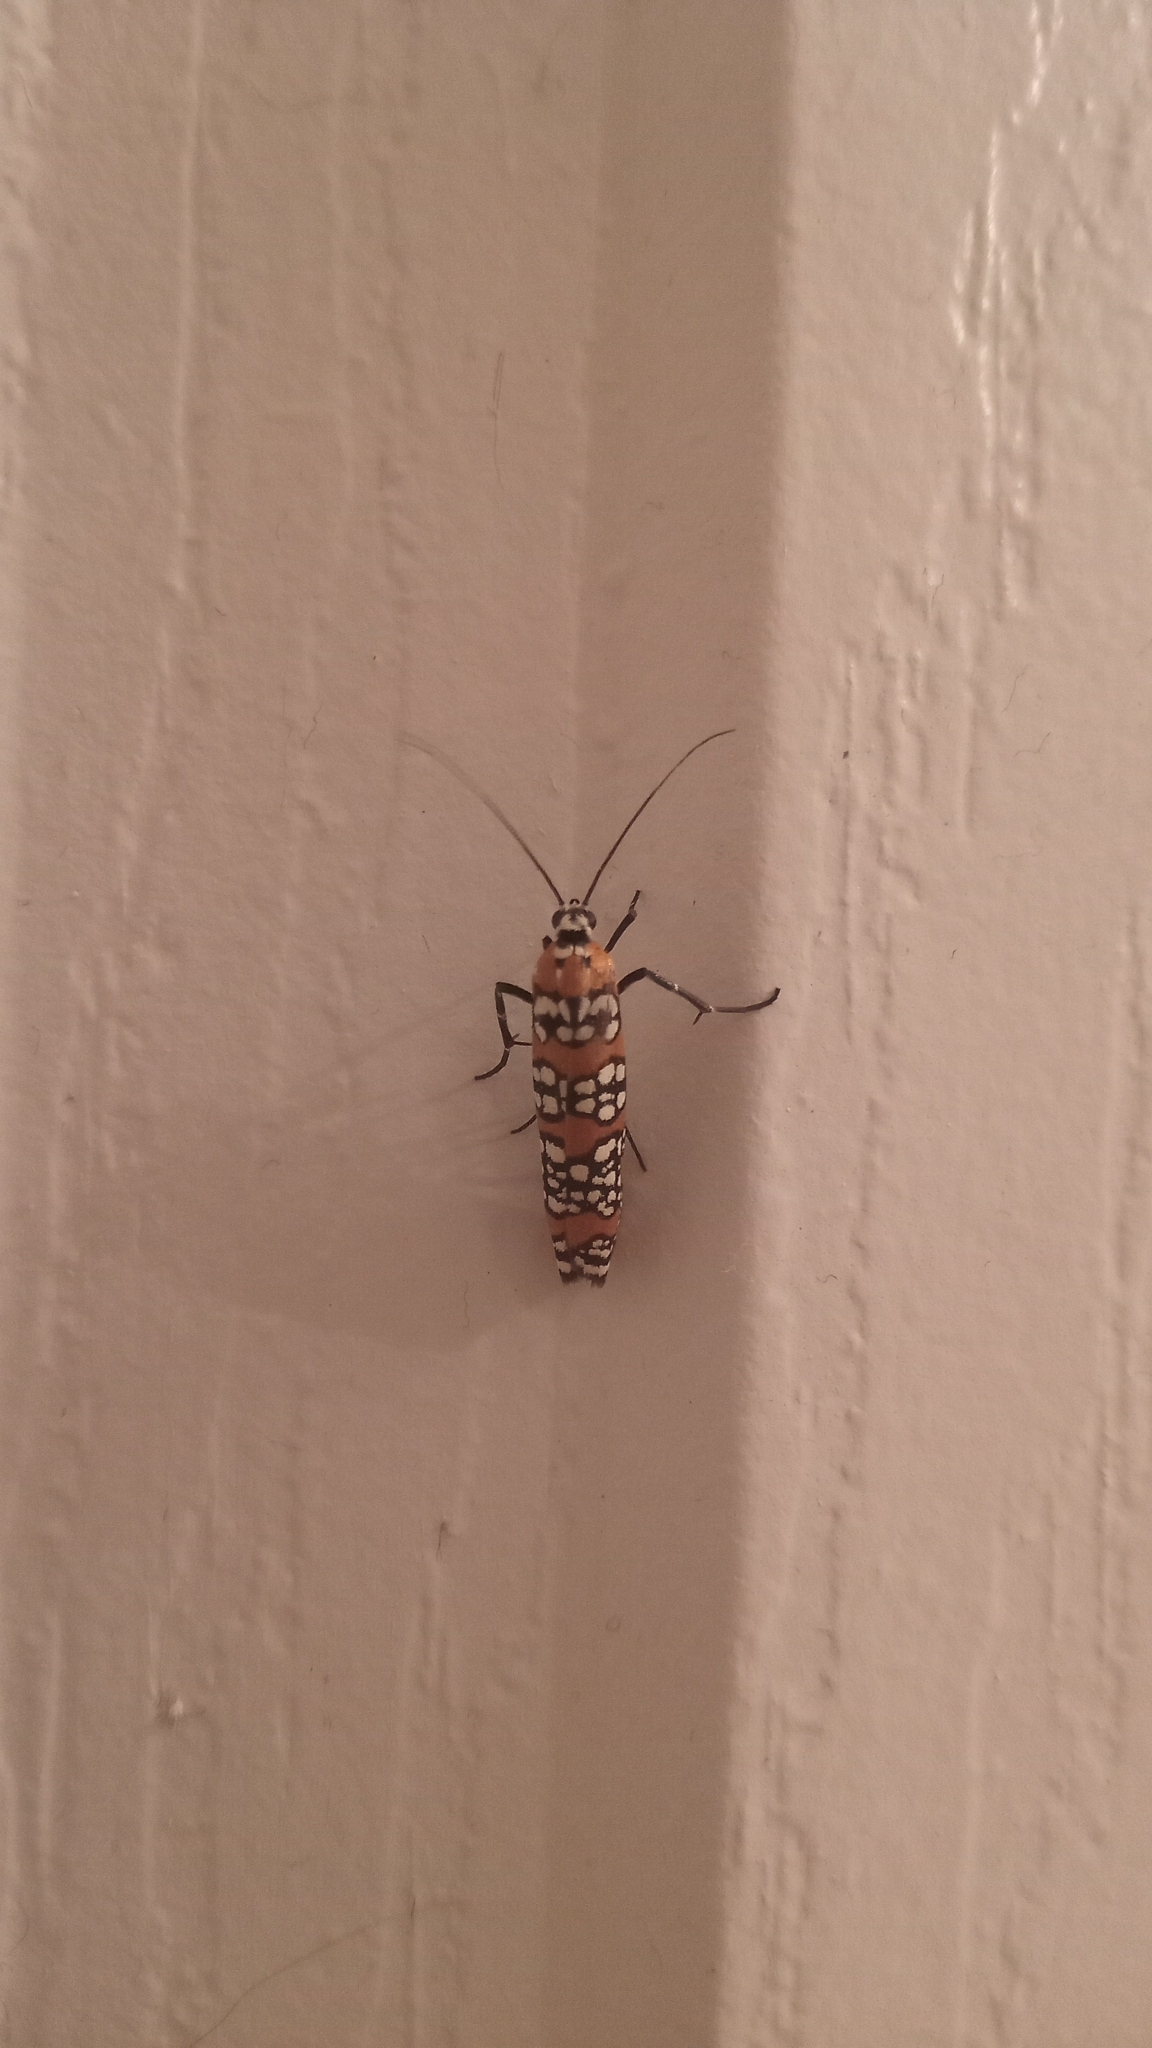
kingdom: Animalia
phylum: Arthropoda
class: Insecta
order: Lepidoptera
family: Attevidae
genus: Atteva
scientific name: Atteva punctella
